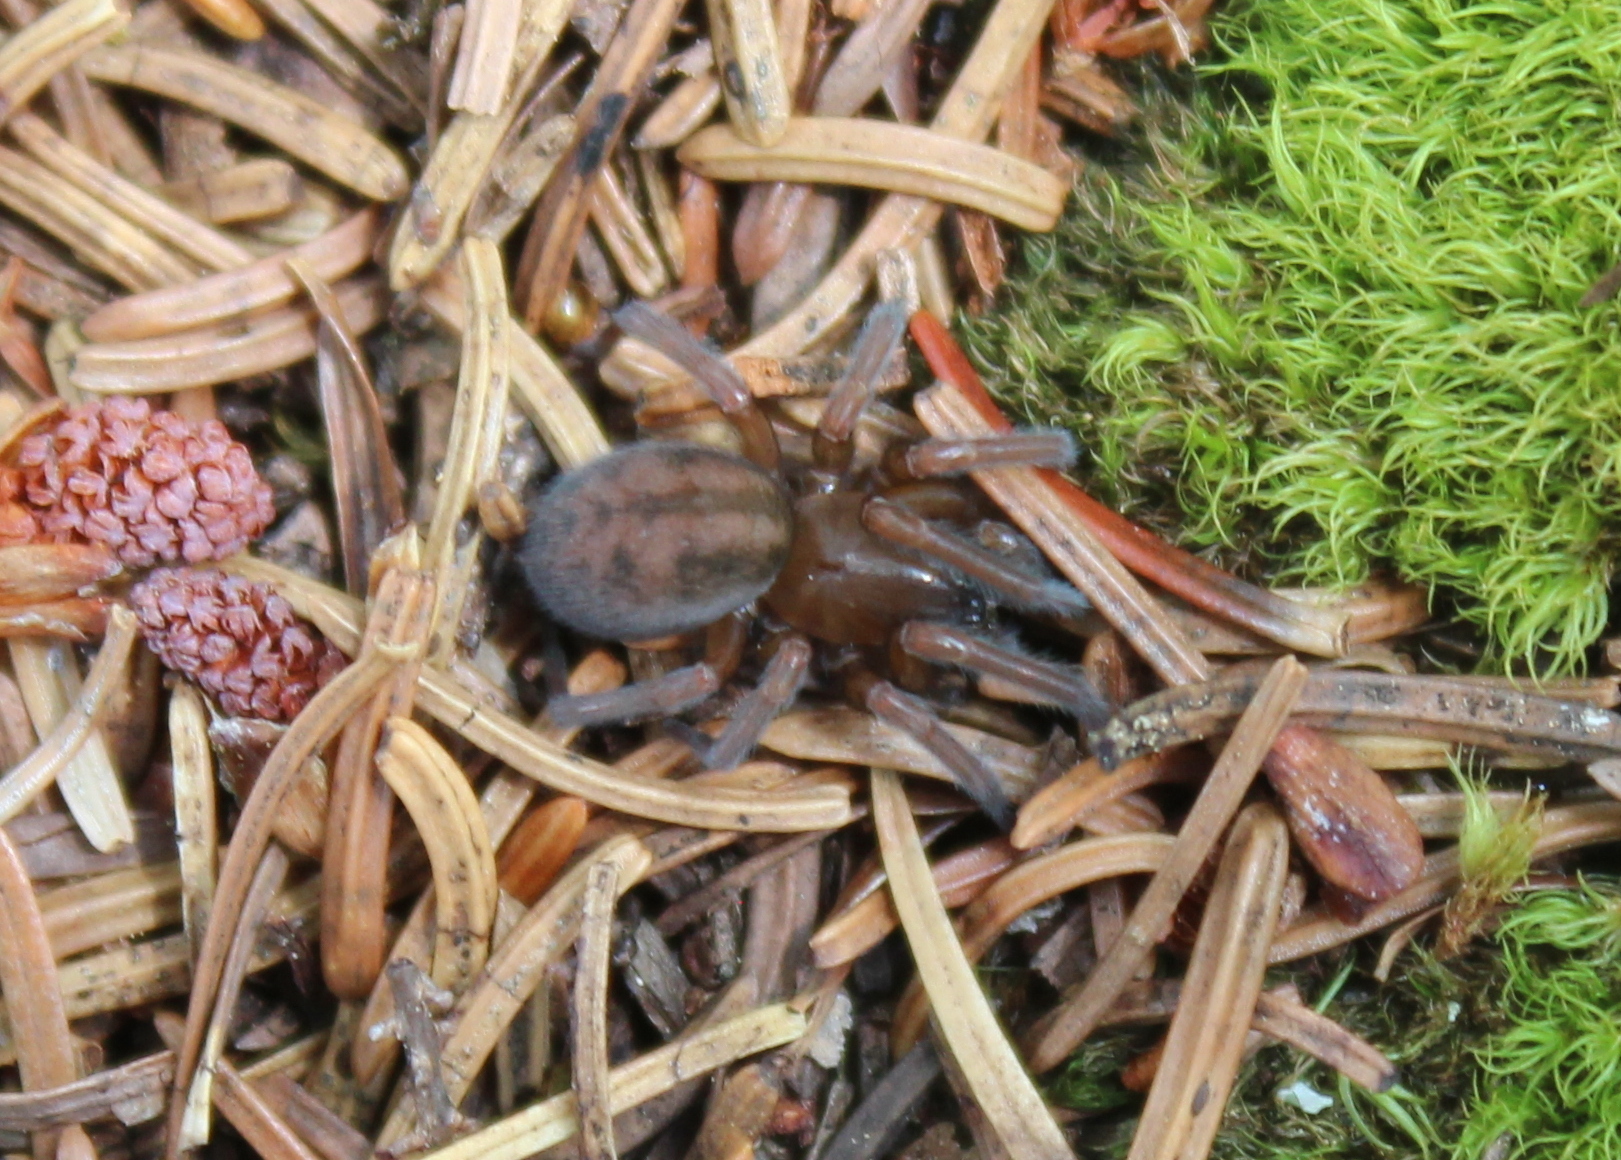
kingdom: Animalia
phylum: Arthropoda
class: Arachnida
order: Araneae
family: Amaurobiidae
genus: Callobius
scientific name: Callobius bennetti
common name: Bennett's laceweaver
